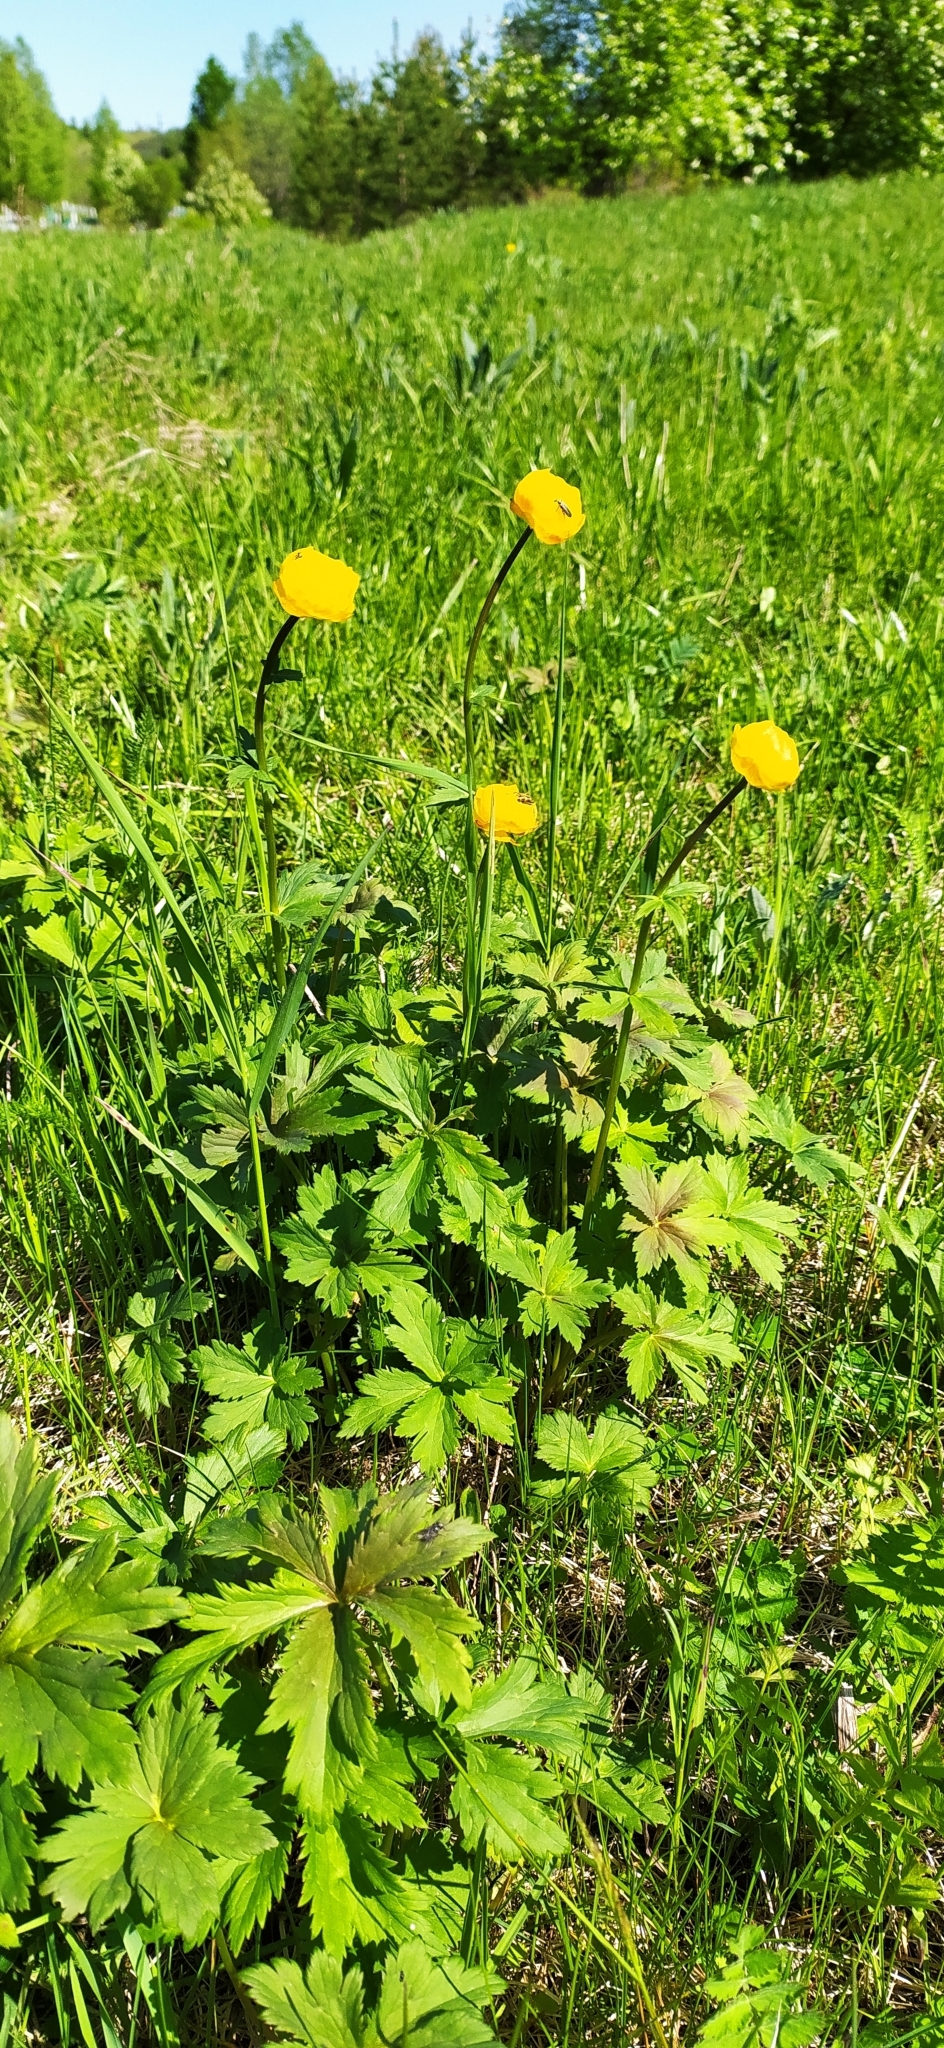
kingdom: Plantae
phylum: Tracheophyta
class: Magnoliopsida
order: Ranunculales
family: Ranunculaceae
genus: Trollius
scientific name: Trollius europaeus
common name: European globeflower
